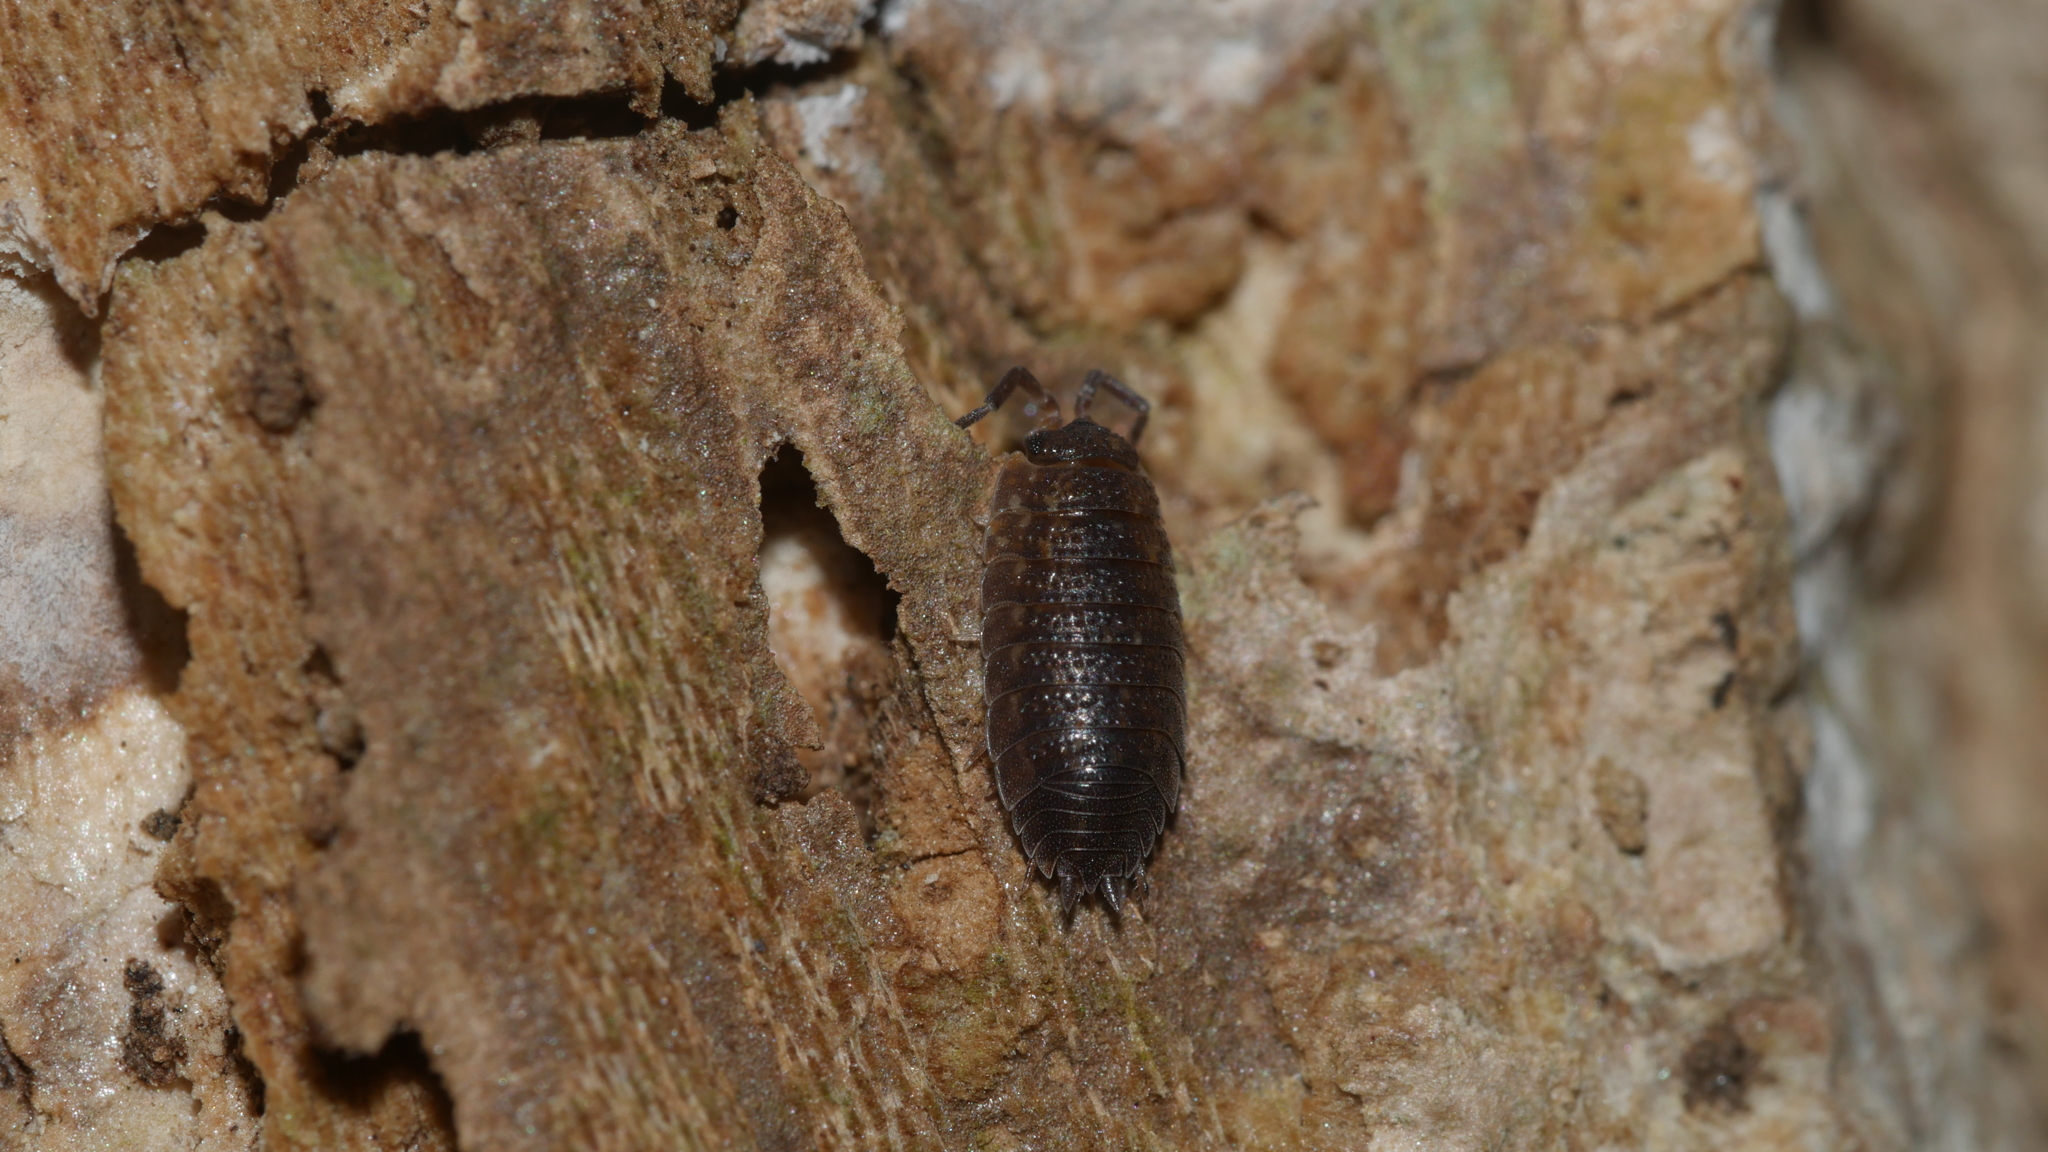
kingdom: Animalia
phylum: Arthropoda
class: Malacostraca
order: Isopoda
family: Porcellionidae
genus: Porcellio
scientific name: Porcellio scaber
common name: Common rough woodlouse
